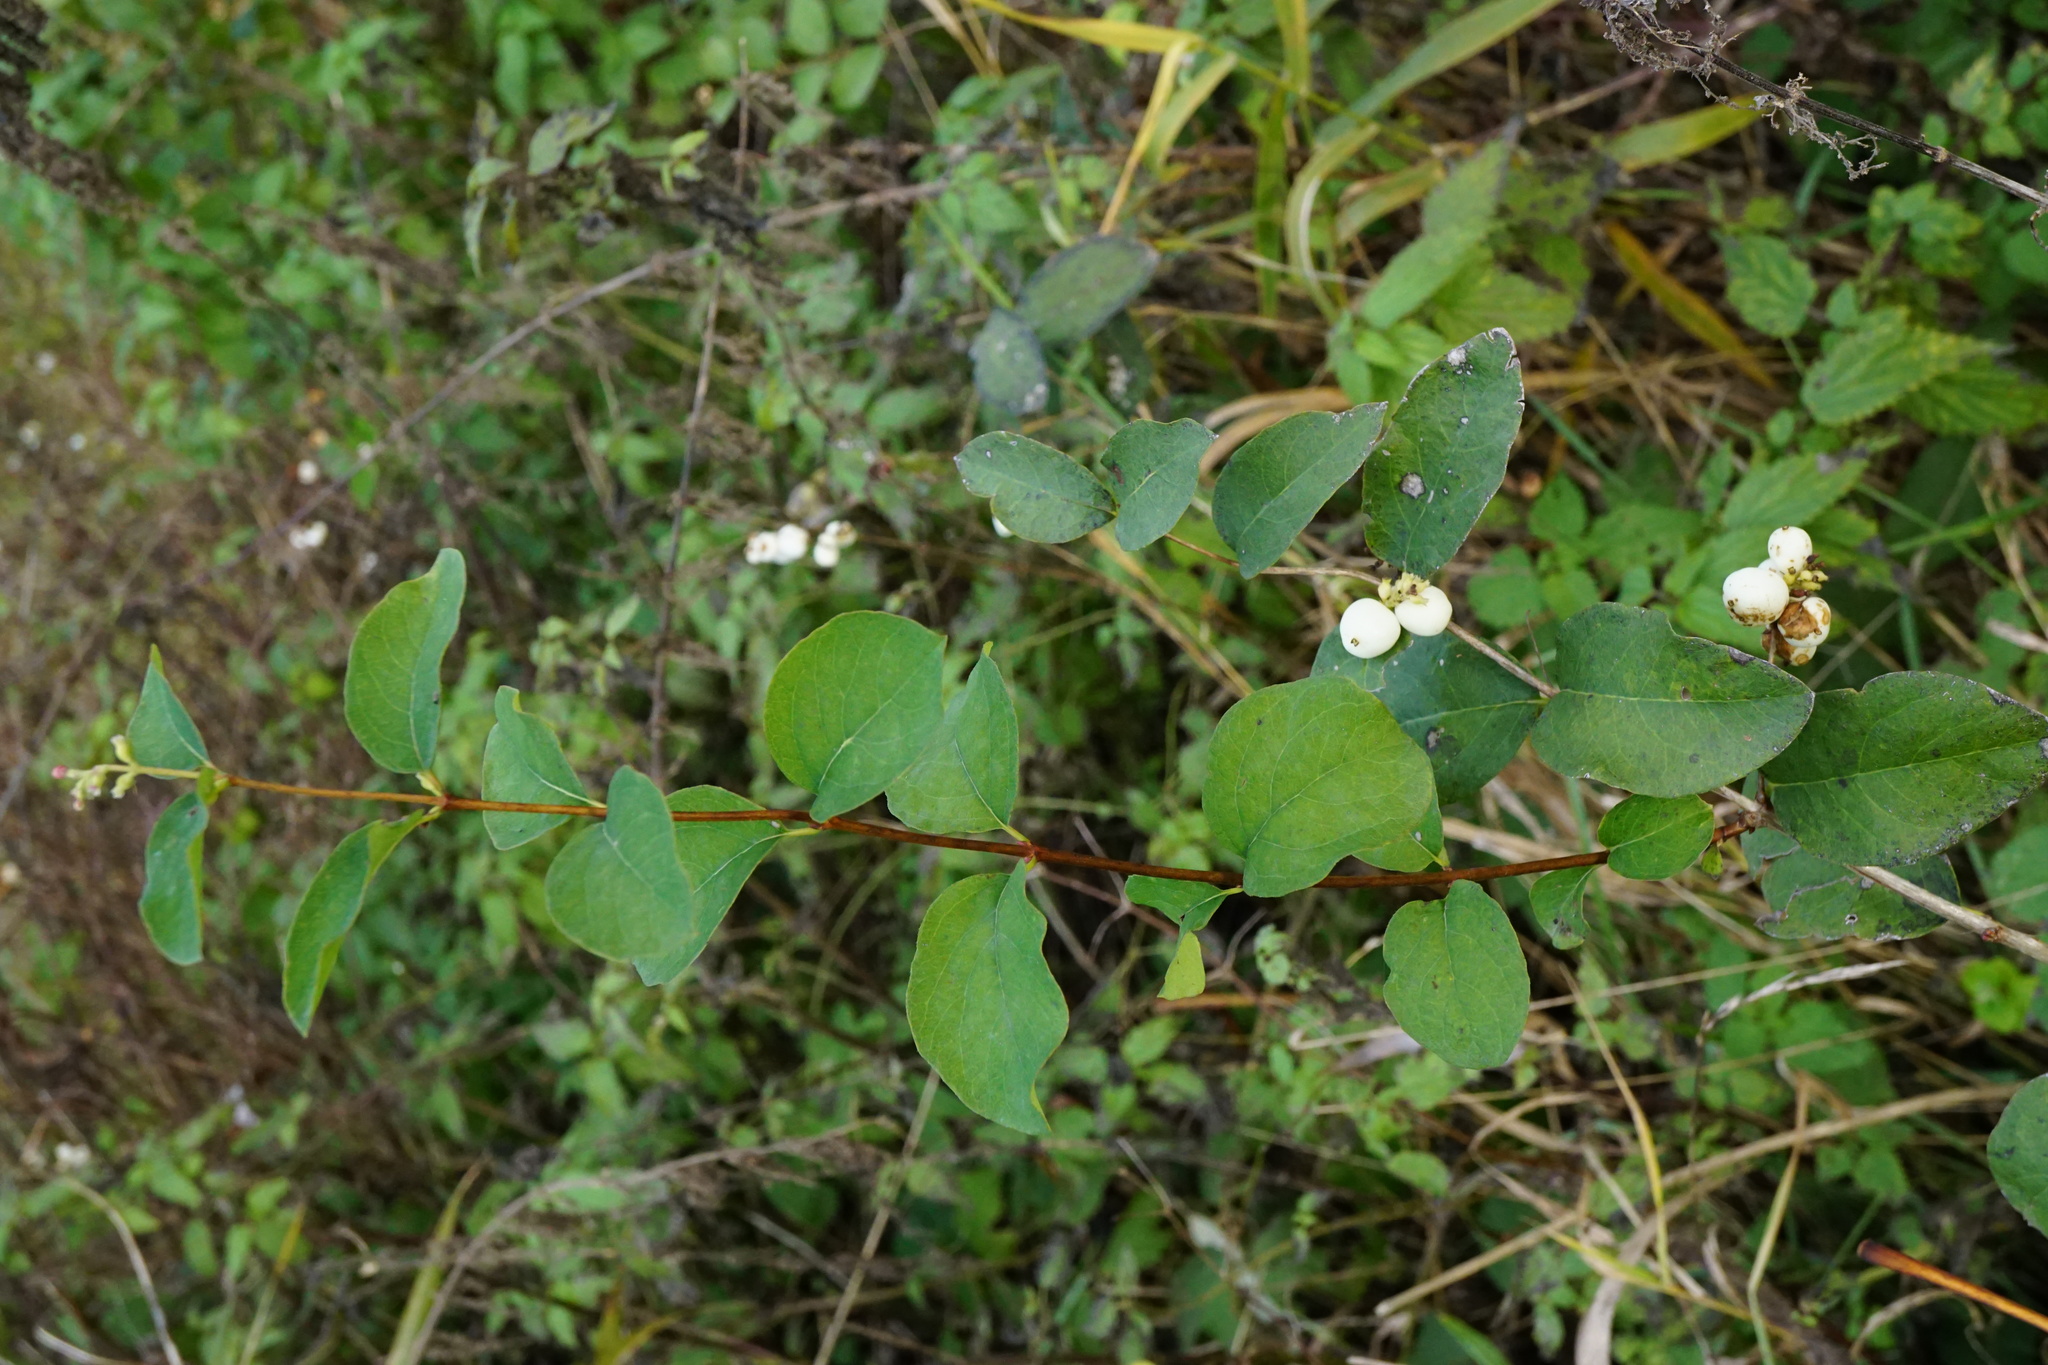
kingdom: Plantae
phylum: Tracheophyta
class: Magnoliopsida
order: Dipsacales
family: Caprifoliaceae
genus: Symphoricarpos
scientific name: Symphoricarpos albus
